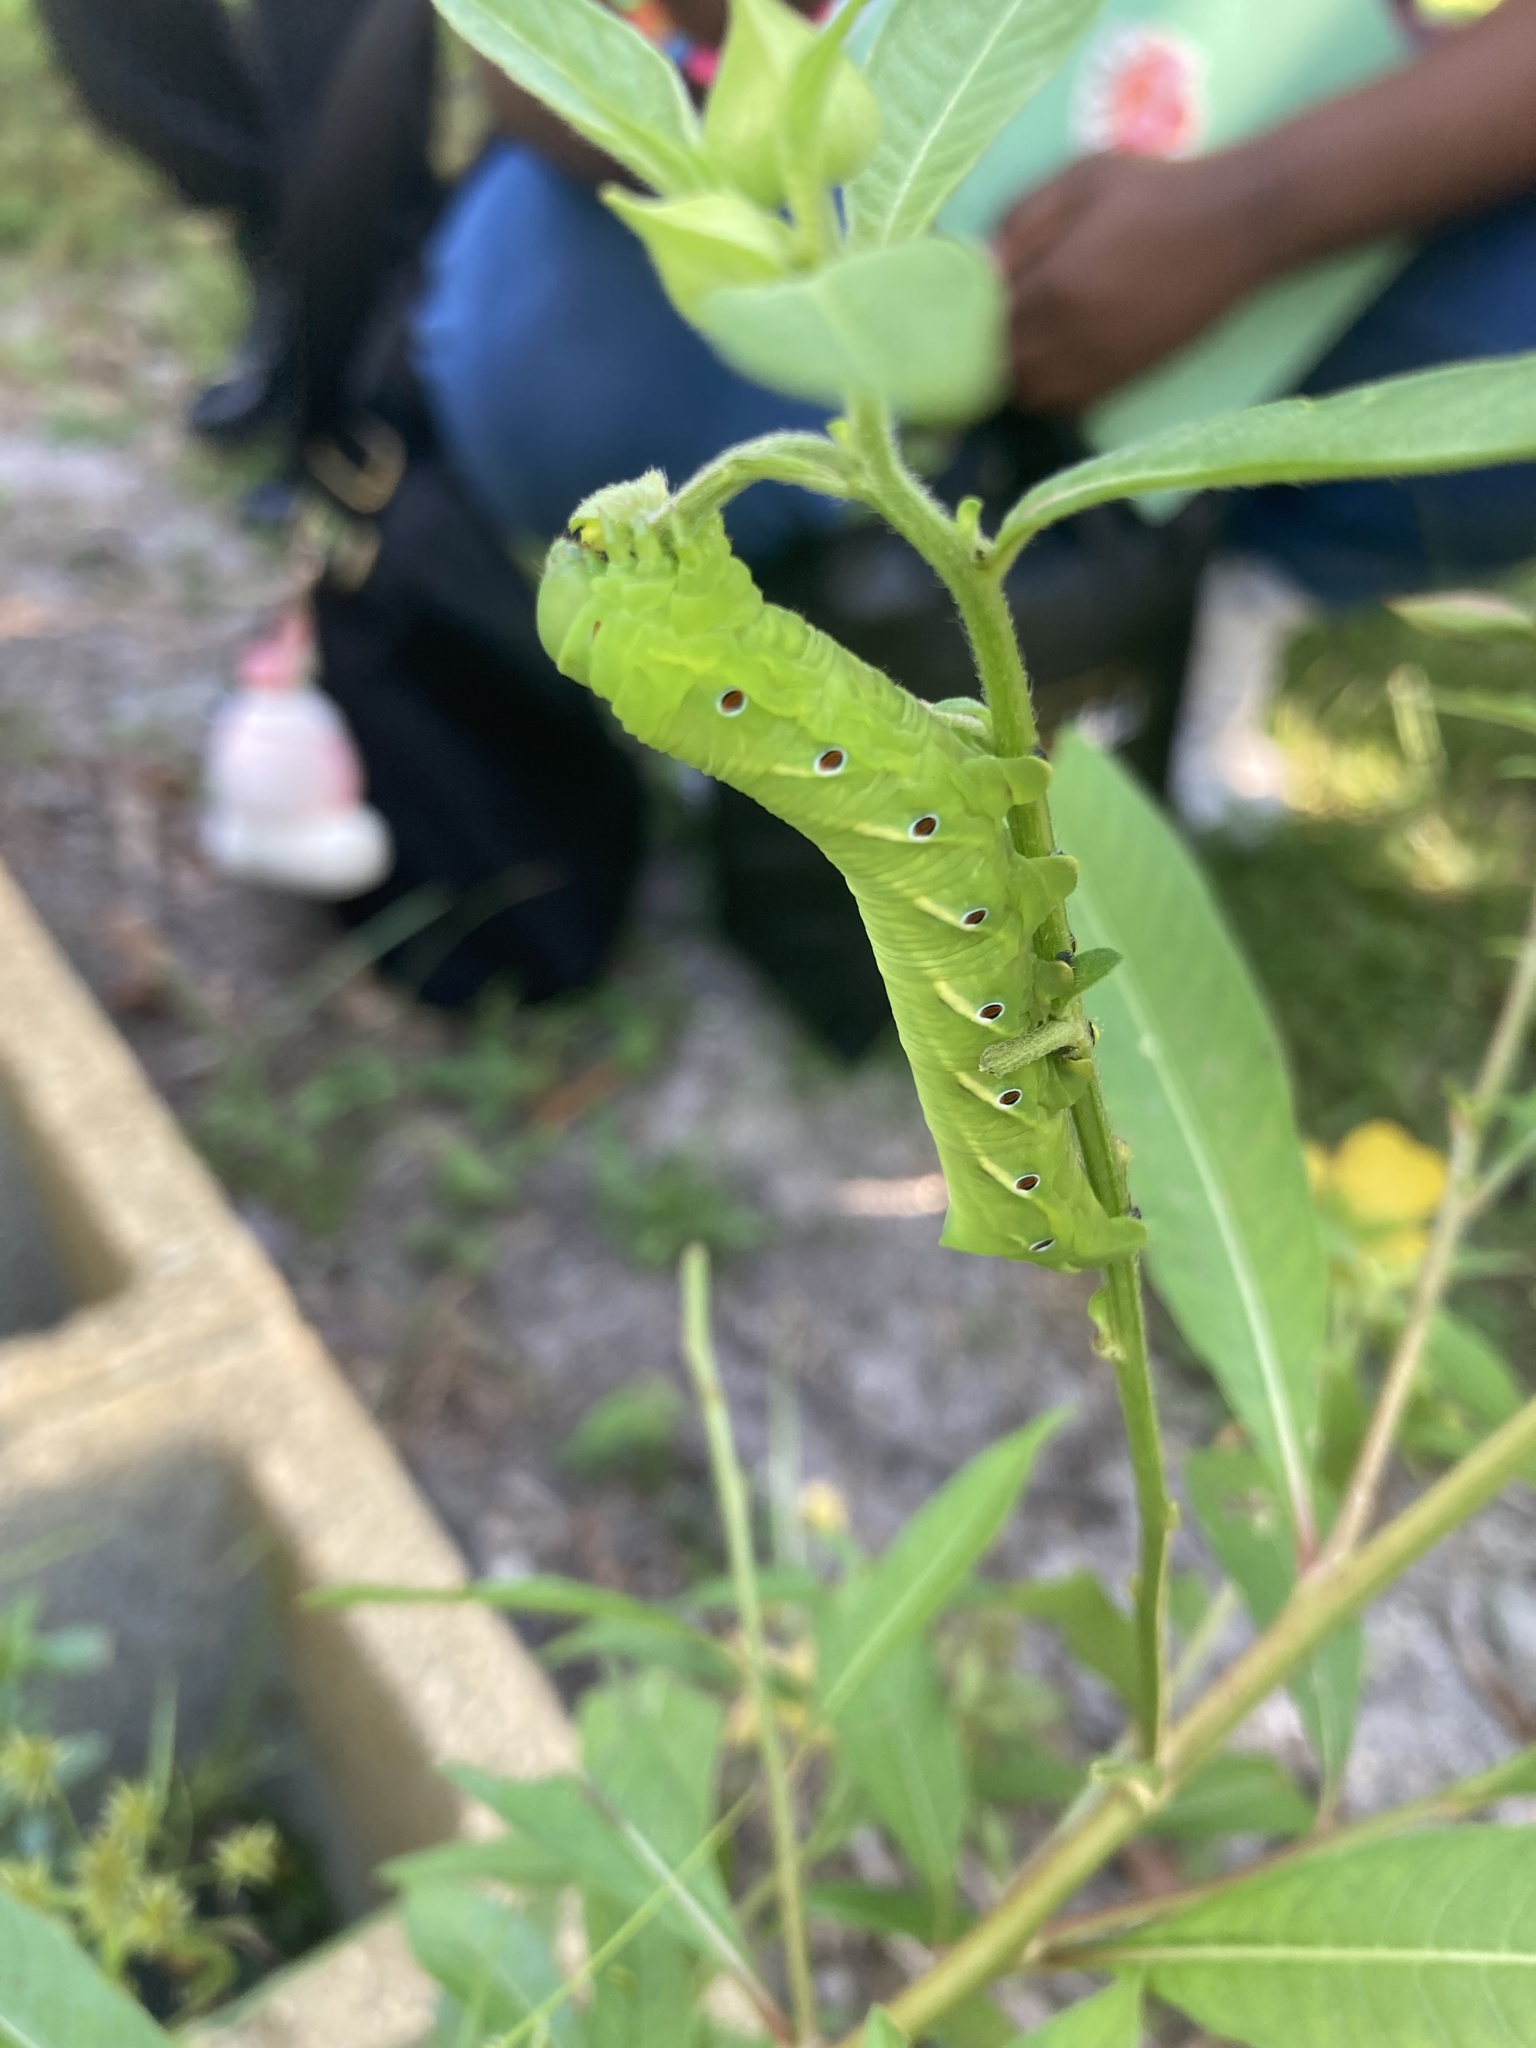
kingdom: Animalia
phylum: Arthropoda
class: Insecta
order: Lepidoptera
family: Sphingidae
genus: Eumorpha
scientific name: Eumorpha fasciatus
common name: Banded sphinx
